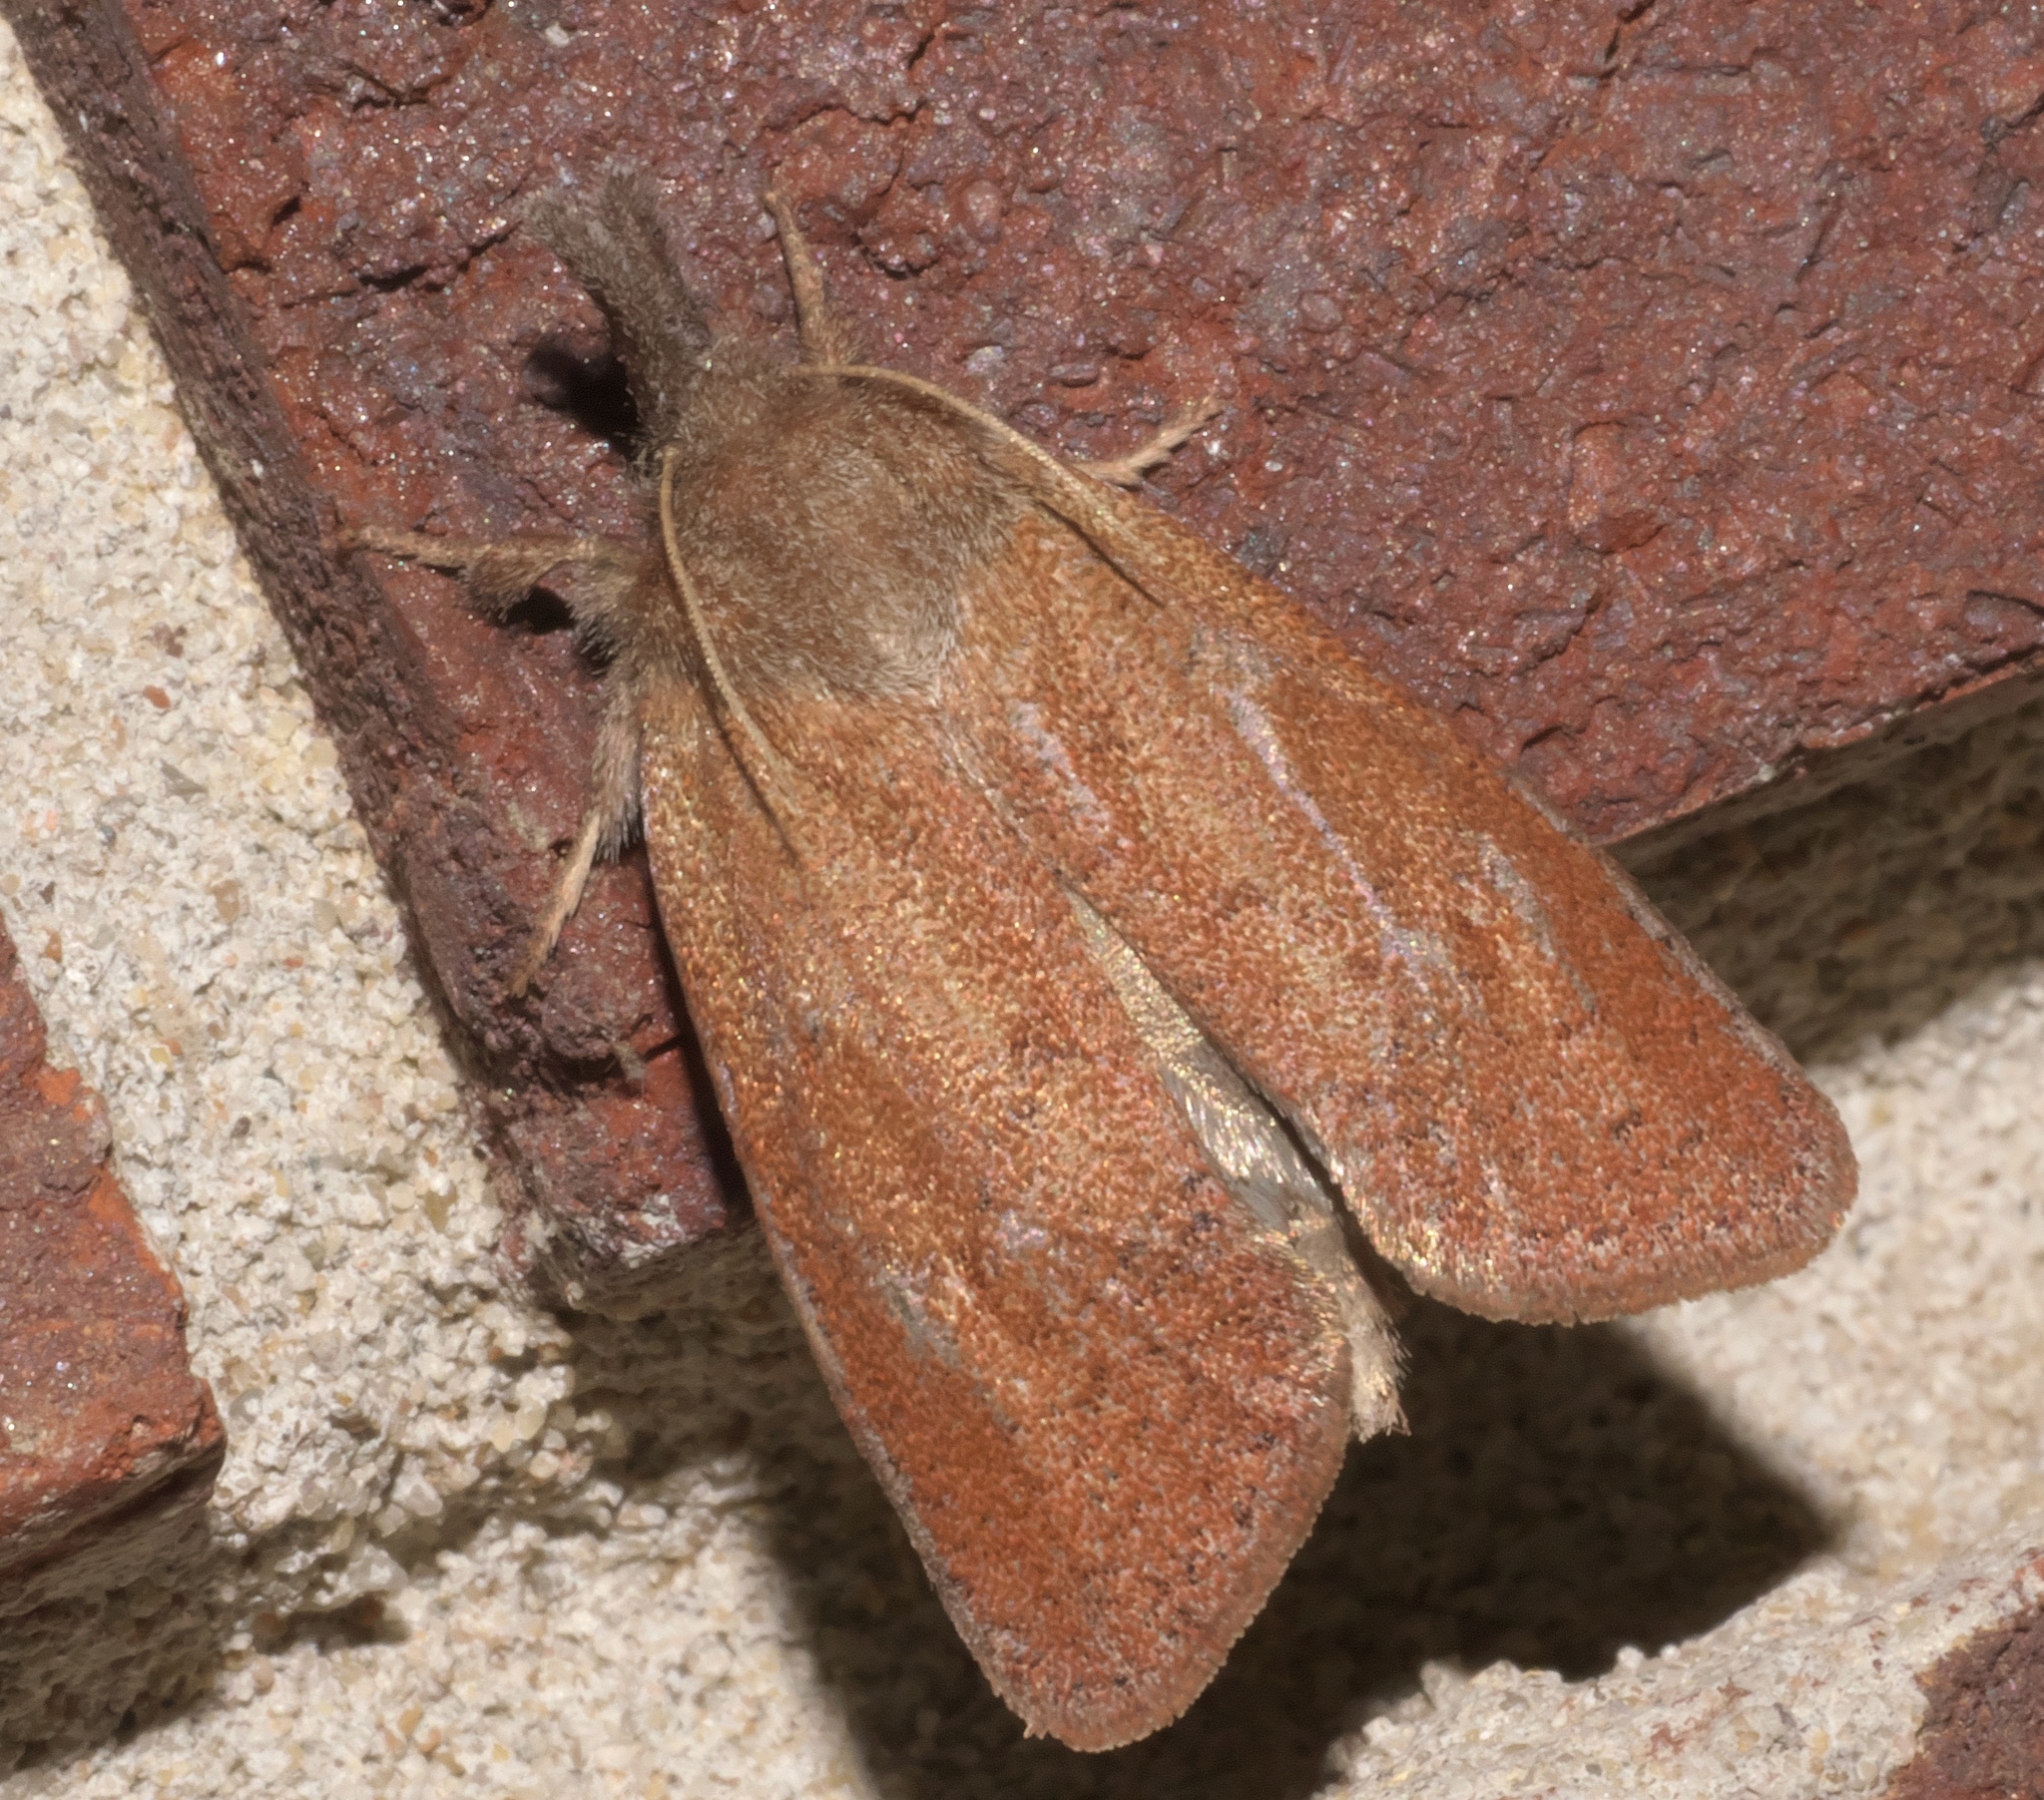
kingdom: Animalia
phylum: Arthropoda
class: Insecta
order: Lepidoptera
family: Tineidae
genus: Acrolophus
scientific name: Acrolophus plumifrontella
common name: Eastern grass tubeworm moth
